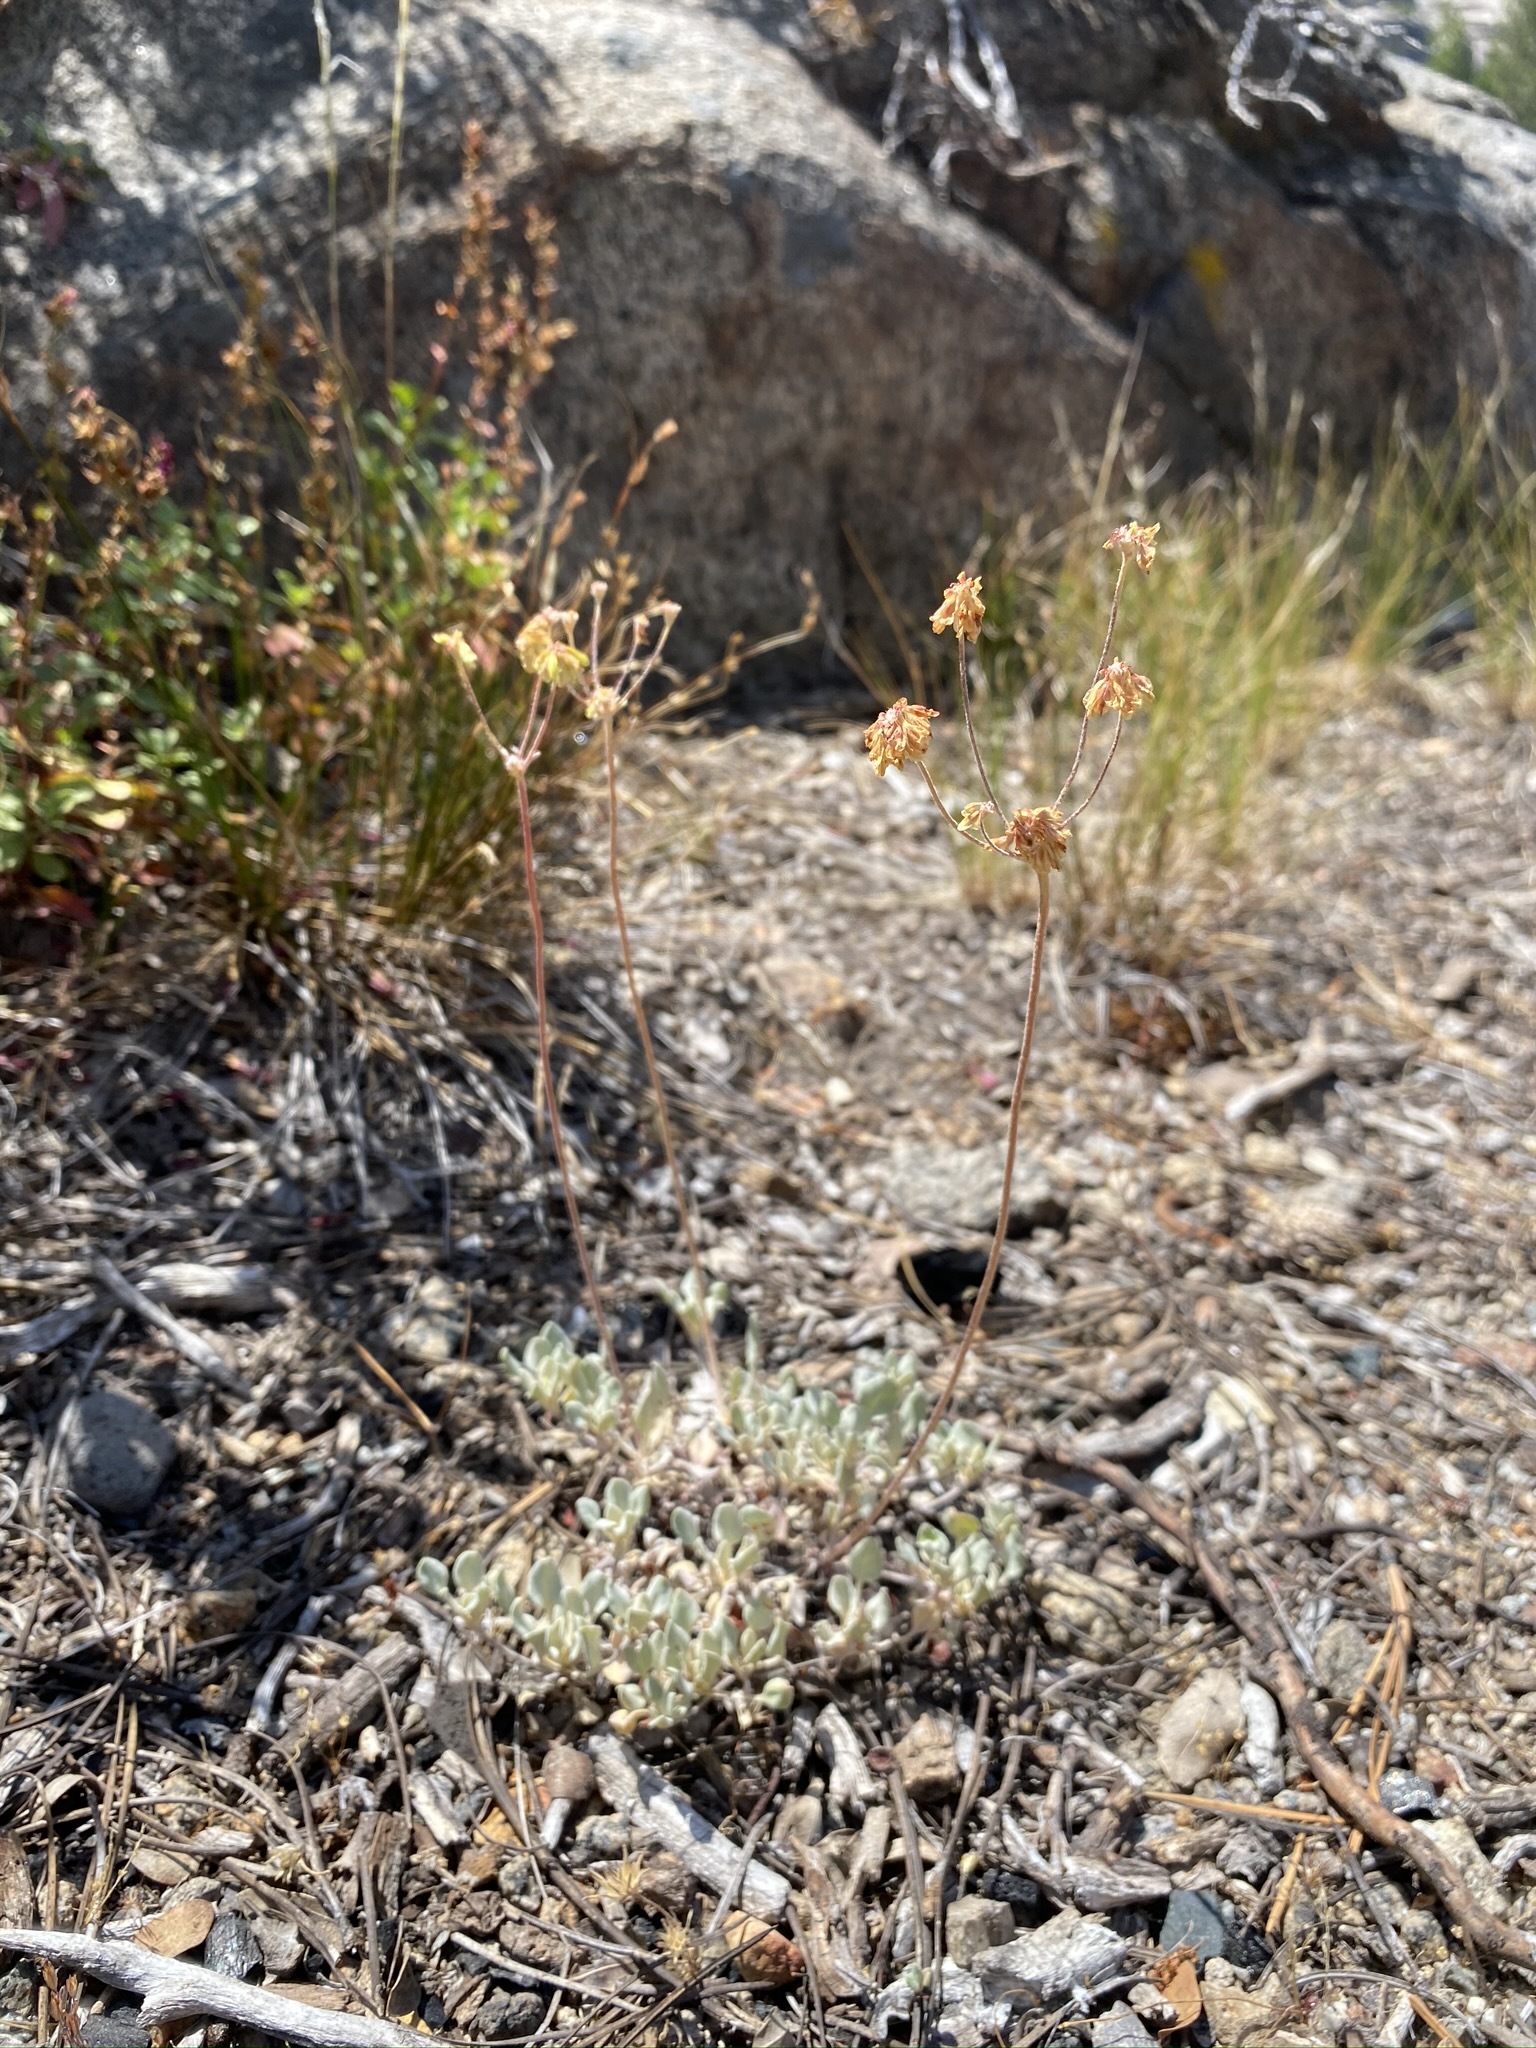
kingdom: Plantae
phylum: Tracheophyta
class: Magnoliopsida
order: Caryophyllales
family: Polygonaceae
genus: Eriogonum
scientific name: Eriogonum incanum
